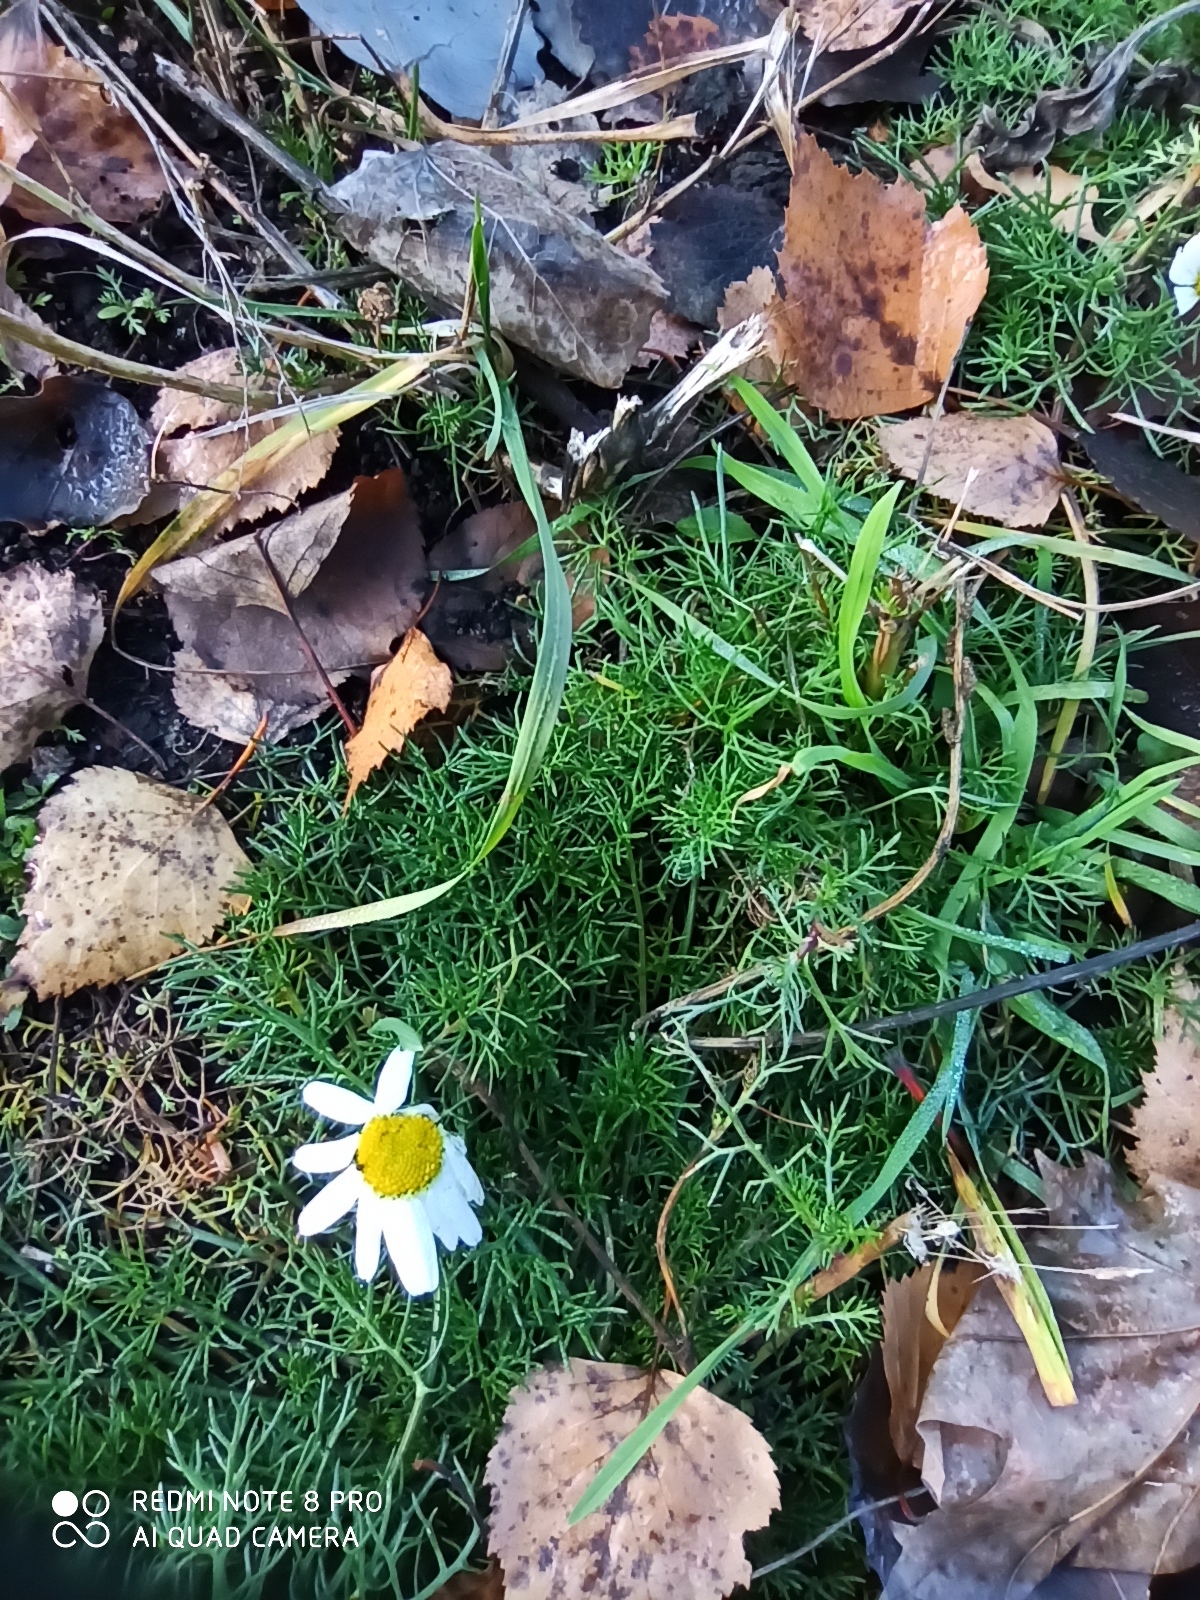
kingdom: Plantae
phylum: Tracheophyta
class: Magnoliopsida
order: Asterales
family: Asteraceae
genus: Tripleurospermum
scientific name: Tripleurospermum inodorum
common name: Scentless mayweed
